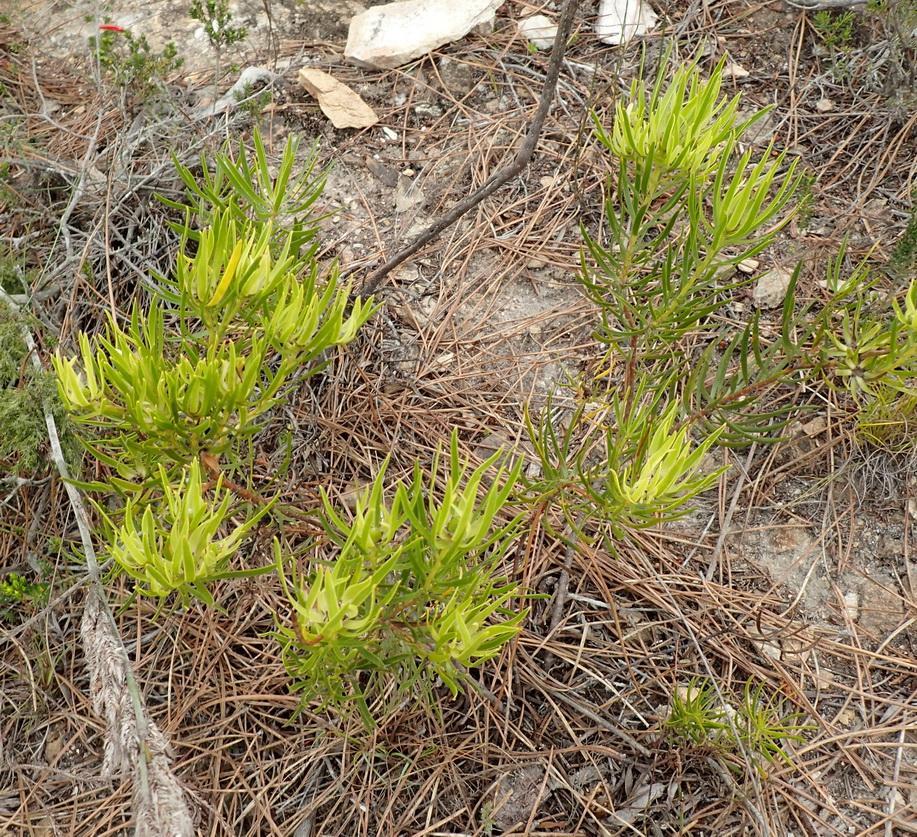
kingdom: Plantae
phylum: Tracheophyta
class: Magnoliopsida
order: Proteales
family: Proteaceae
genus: Leucadendron
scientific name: Leucadendron spissifolium
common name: Spear-leaf conebush
